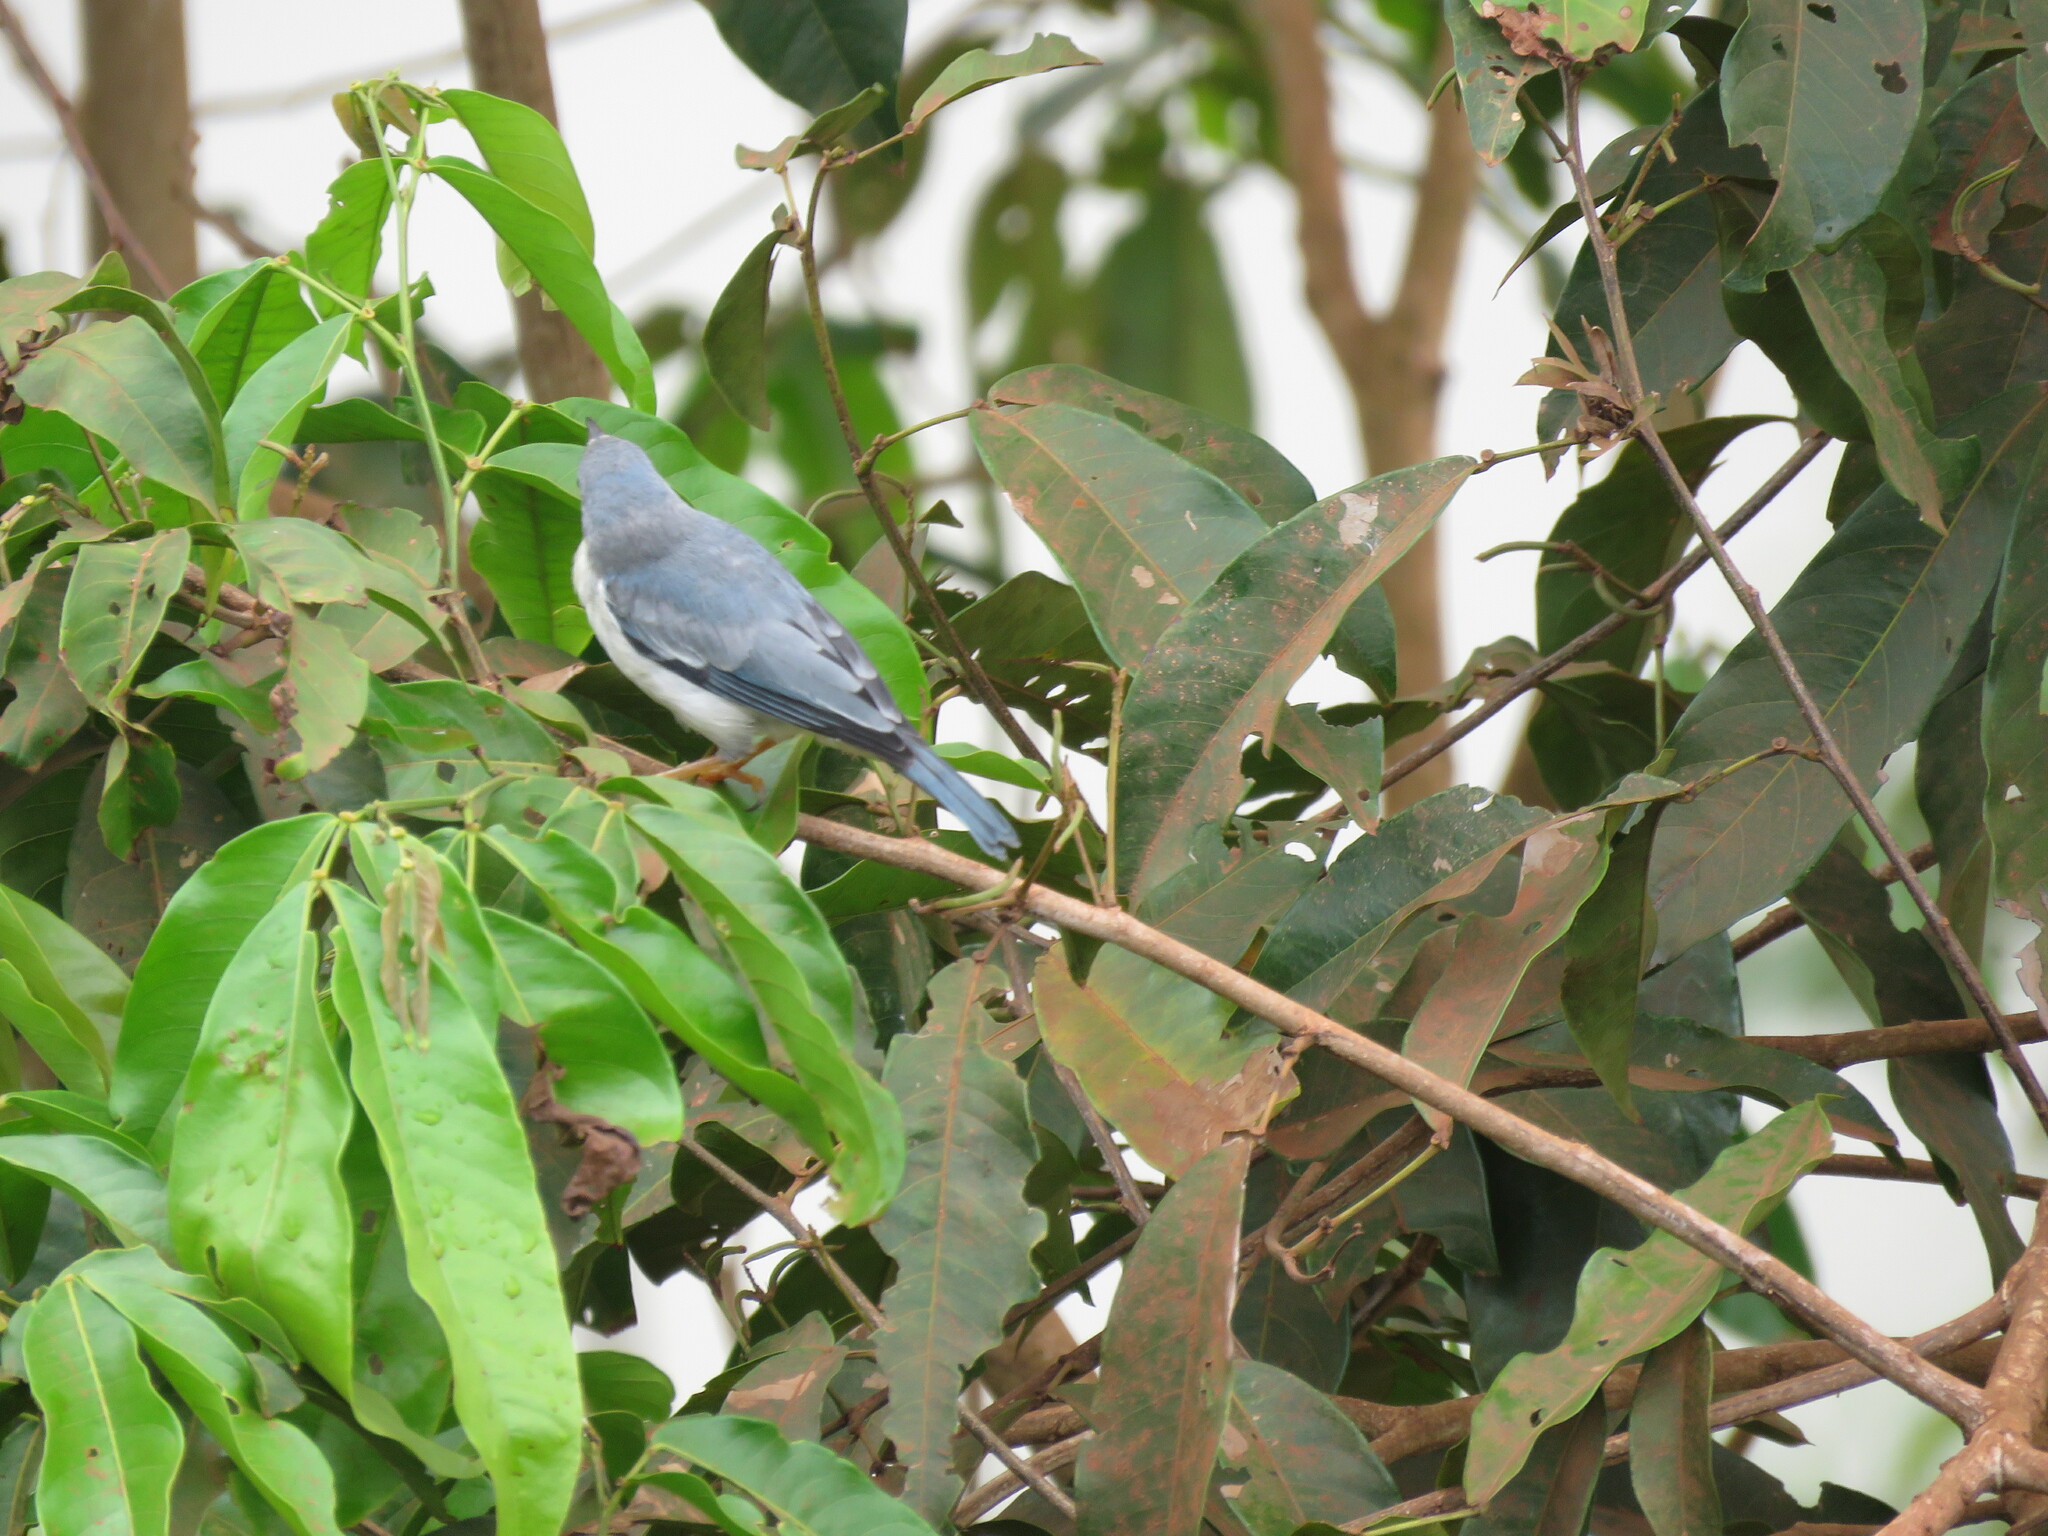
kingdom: Animalia
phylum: Chordata
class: Aves
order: Passeriformes
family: Thraupidae
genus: Nemosia
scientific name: Nemosia pileata
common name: Hooded tanager
